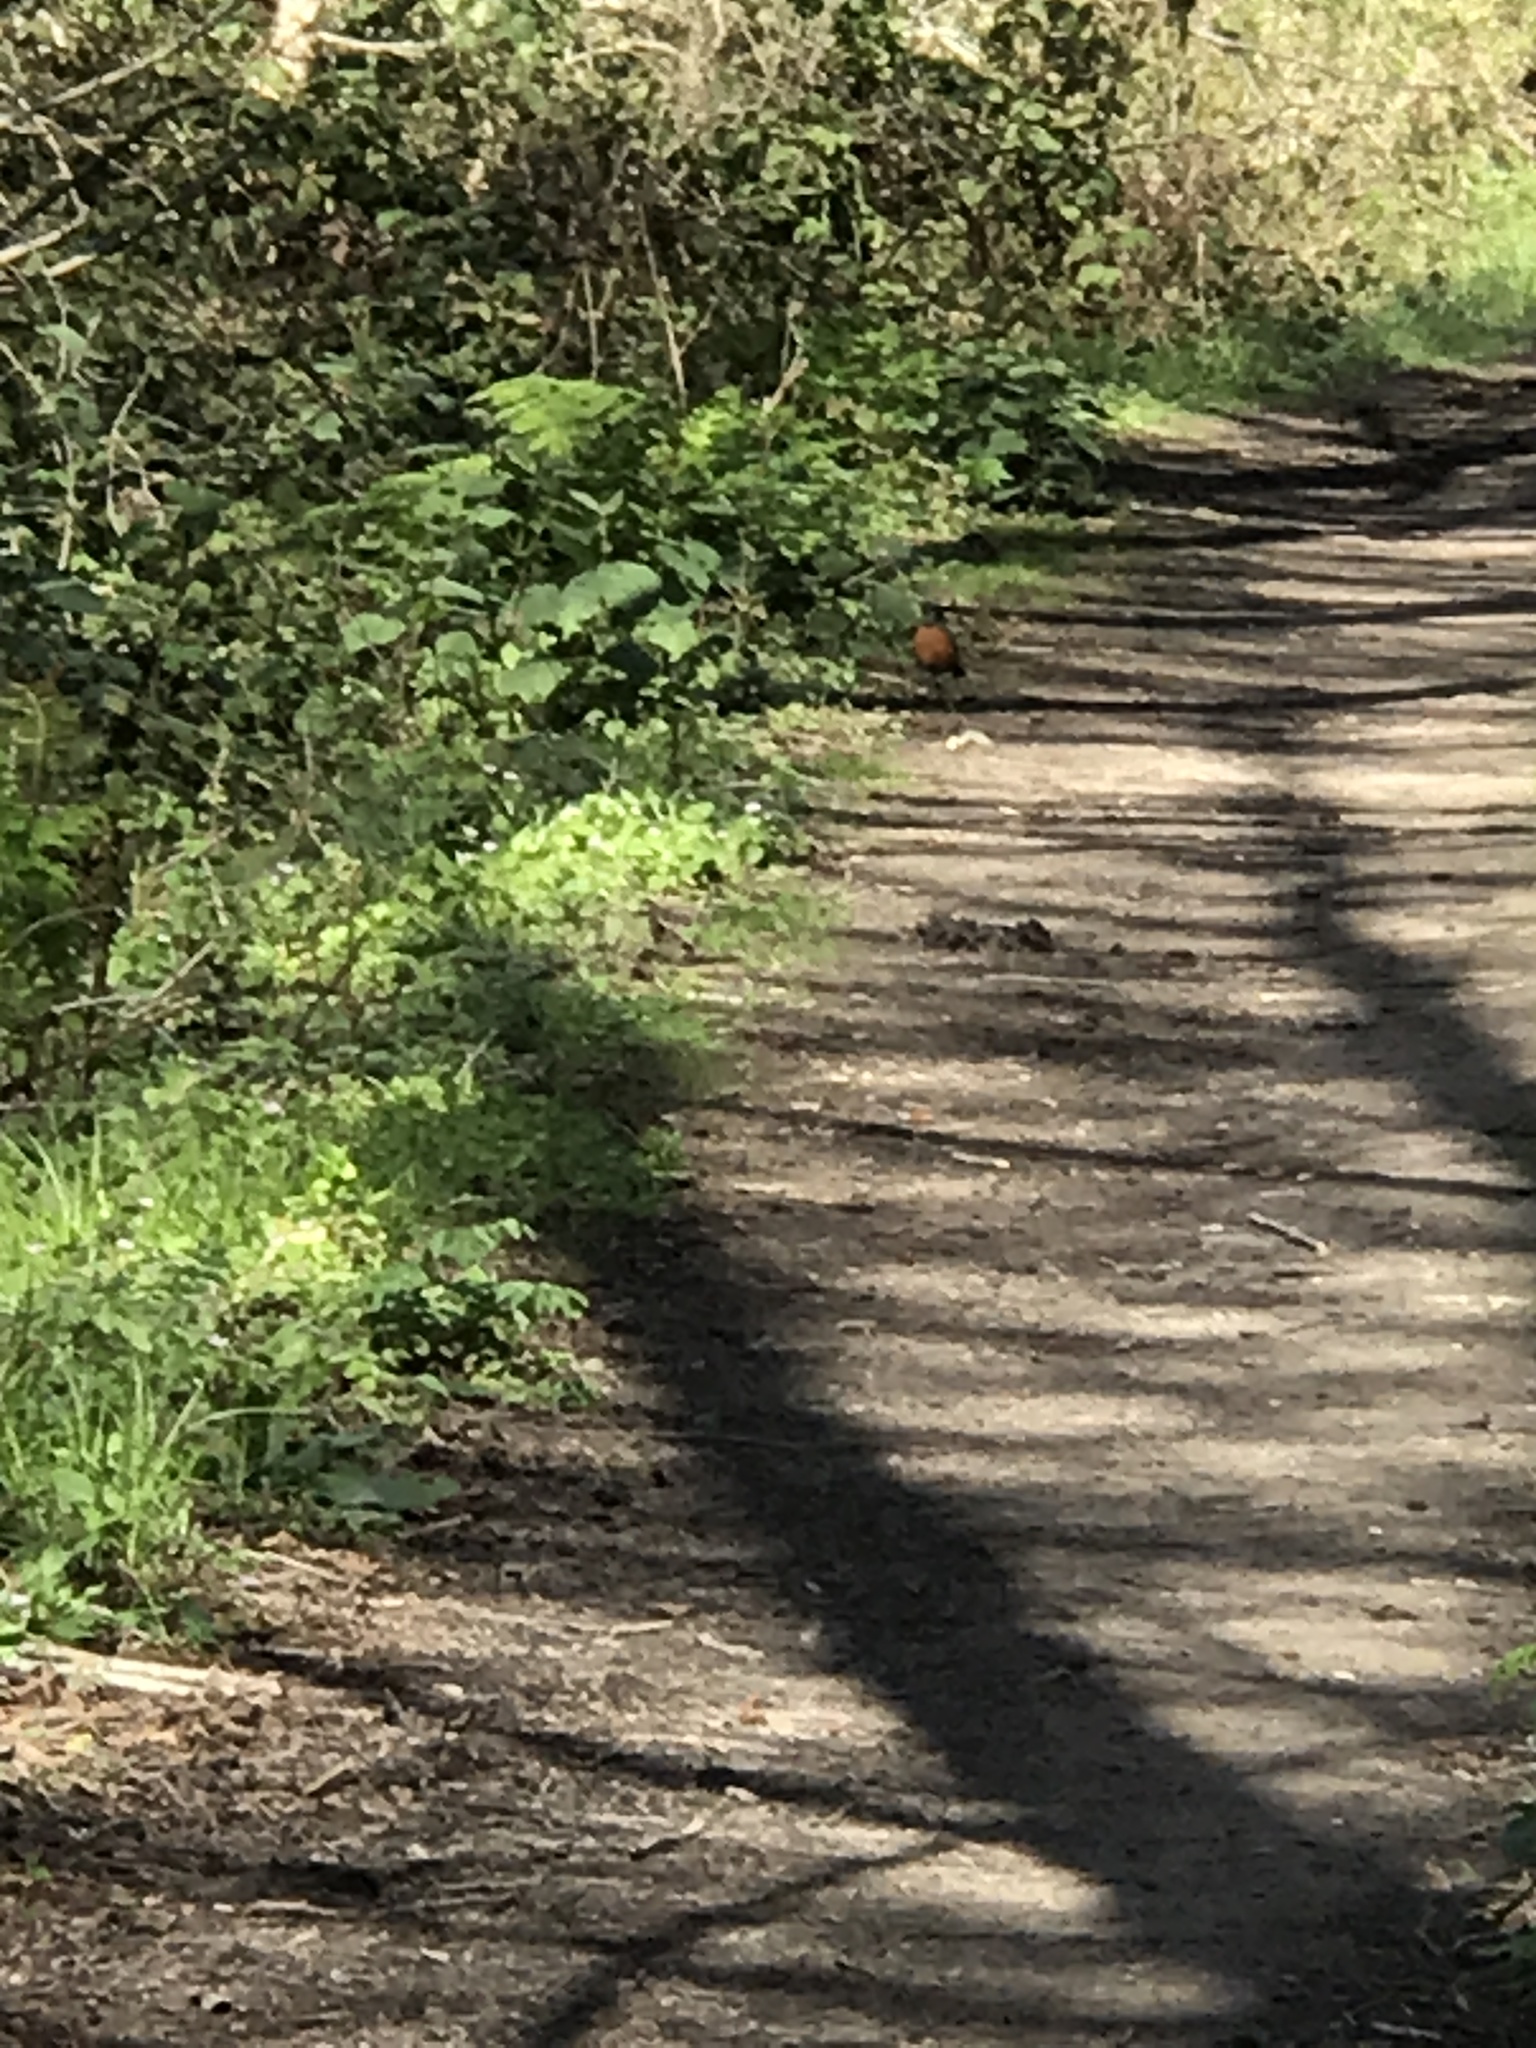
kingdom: Animalia
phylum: Chordata
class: Aves
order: Passeriformes
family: Turdidae
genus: Turdus
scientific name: Turdus migratorius
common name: American robin
